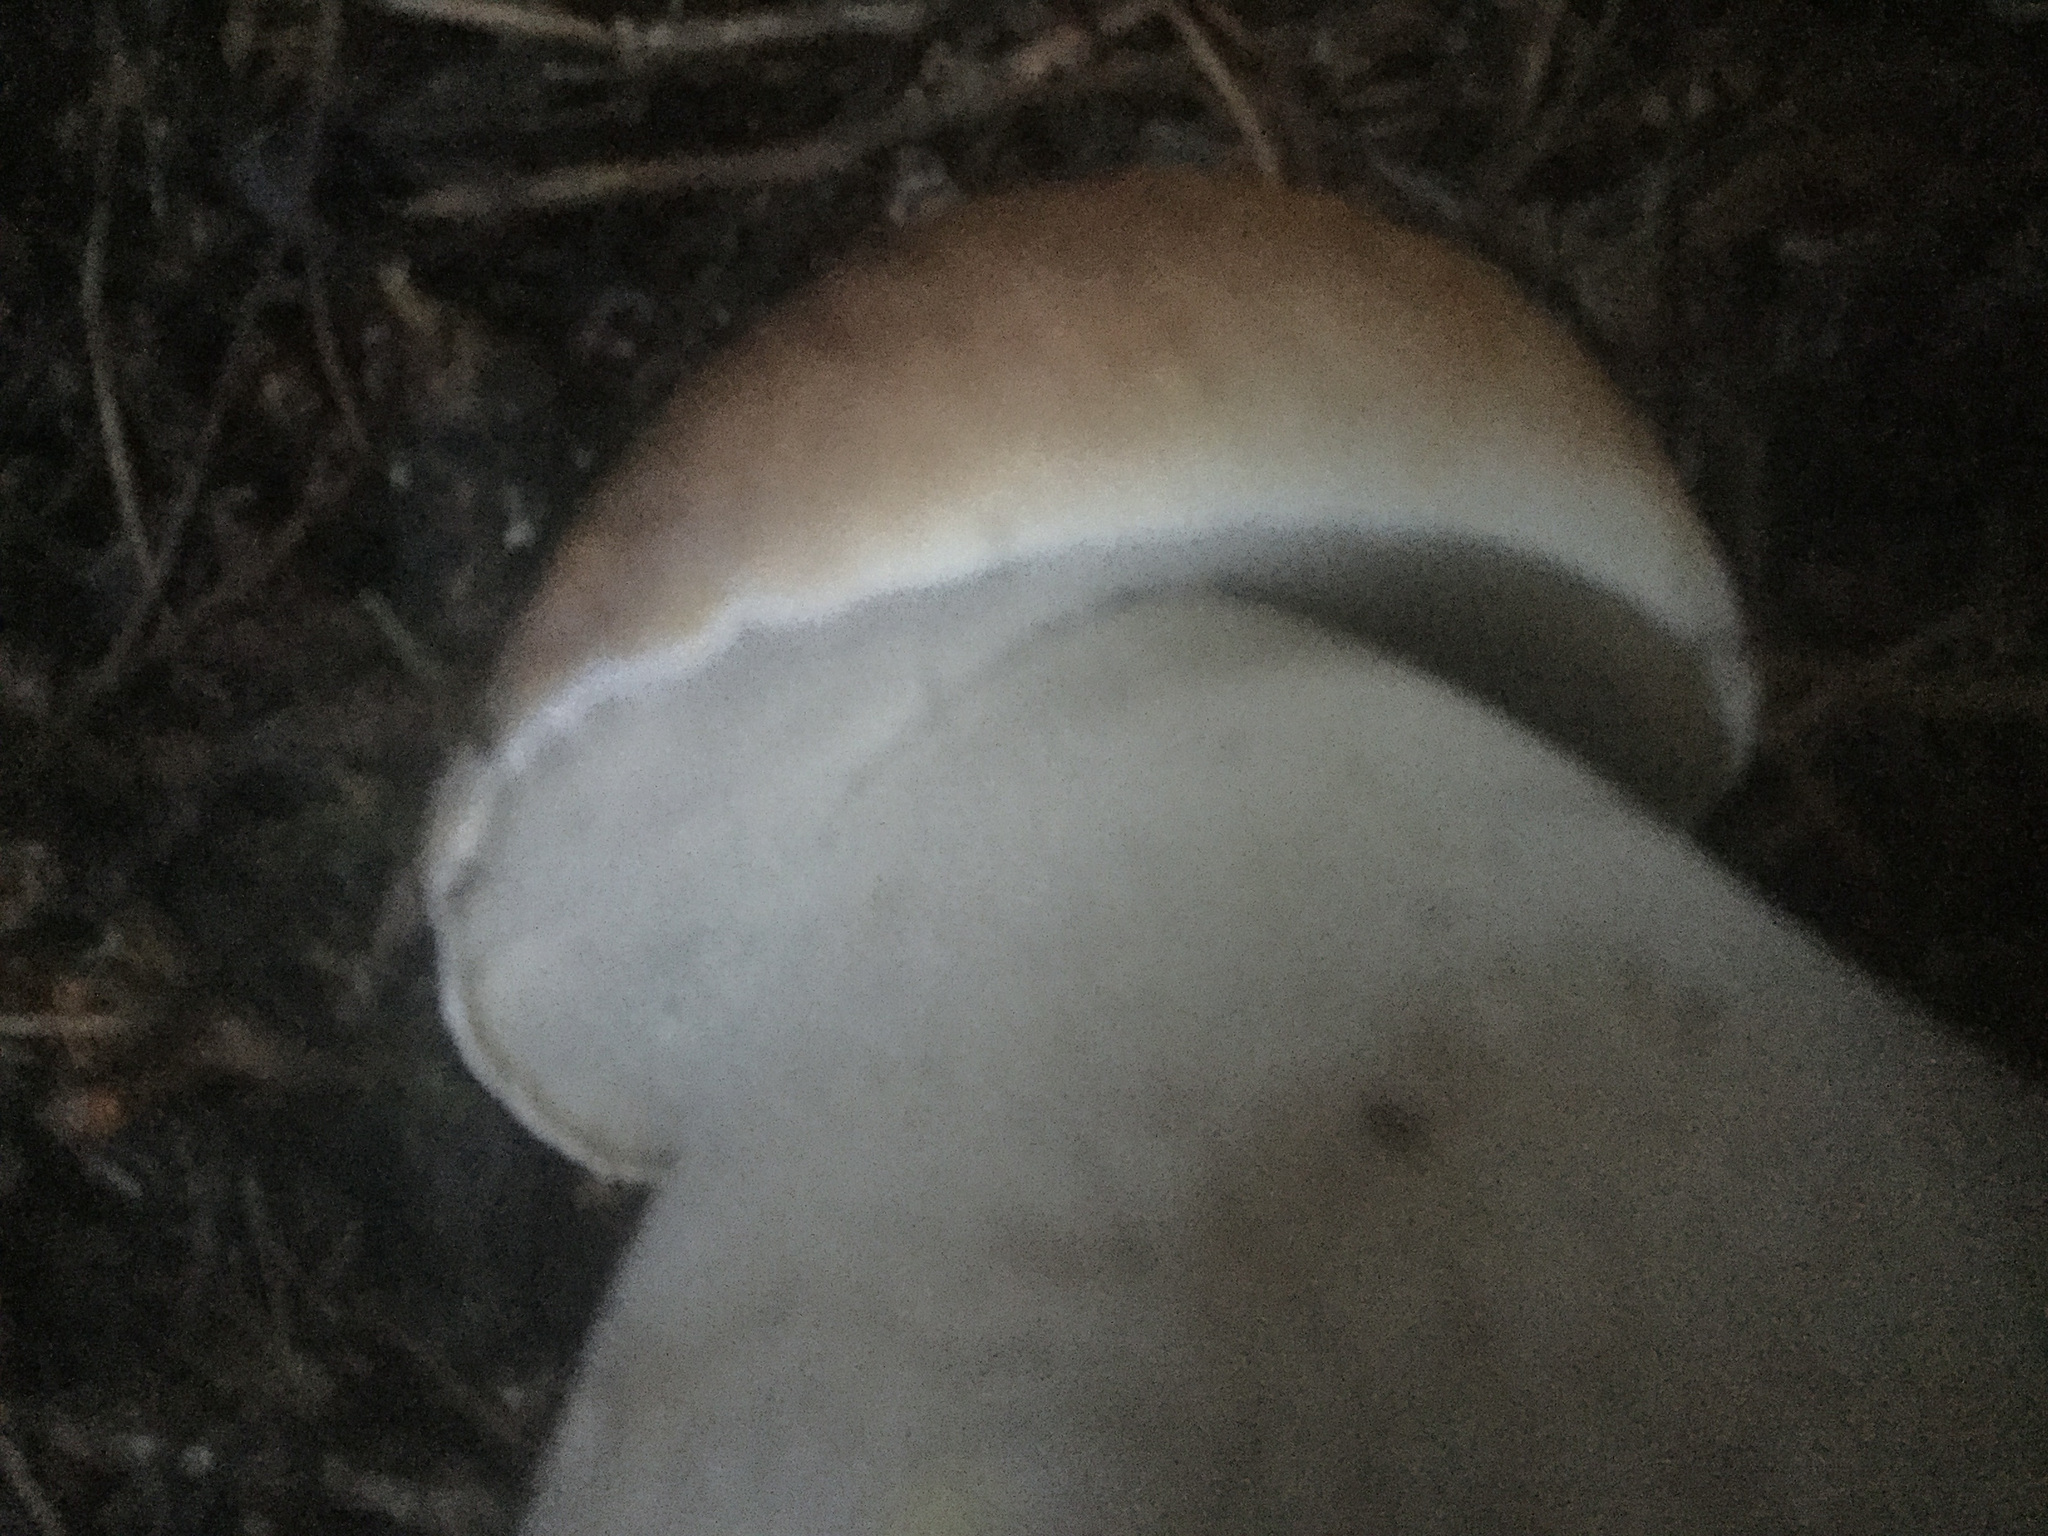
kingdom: Fungi
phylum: Basidiomycota
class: Agaricomycetes
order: Boletales
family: Boletaceae
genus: Boletus
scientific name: Boletus edulis
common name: Cep
